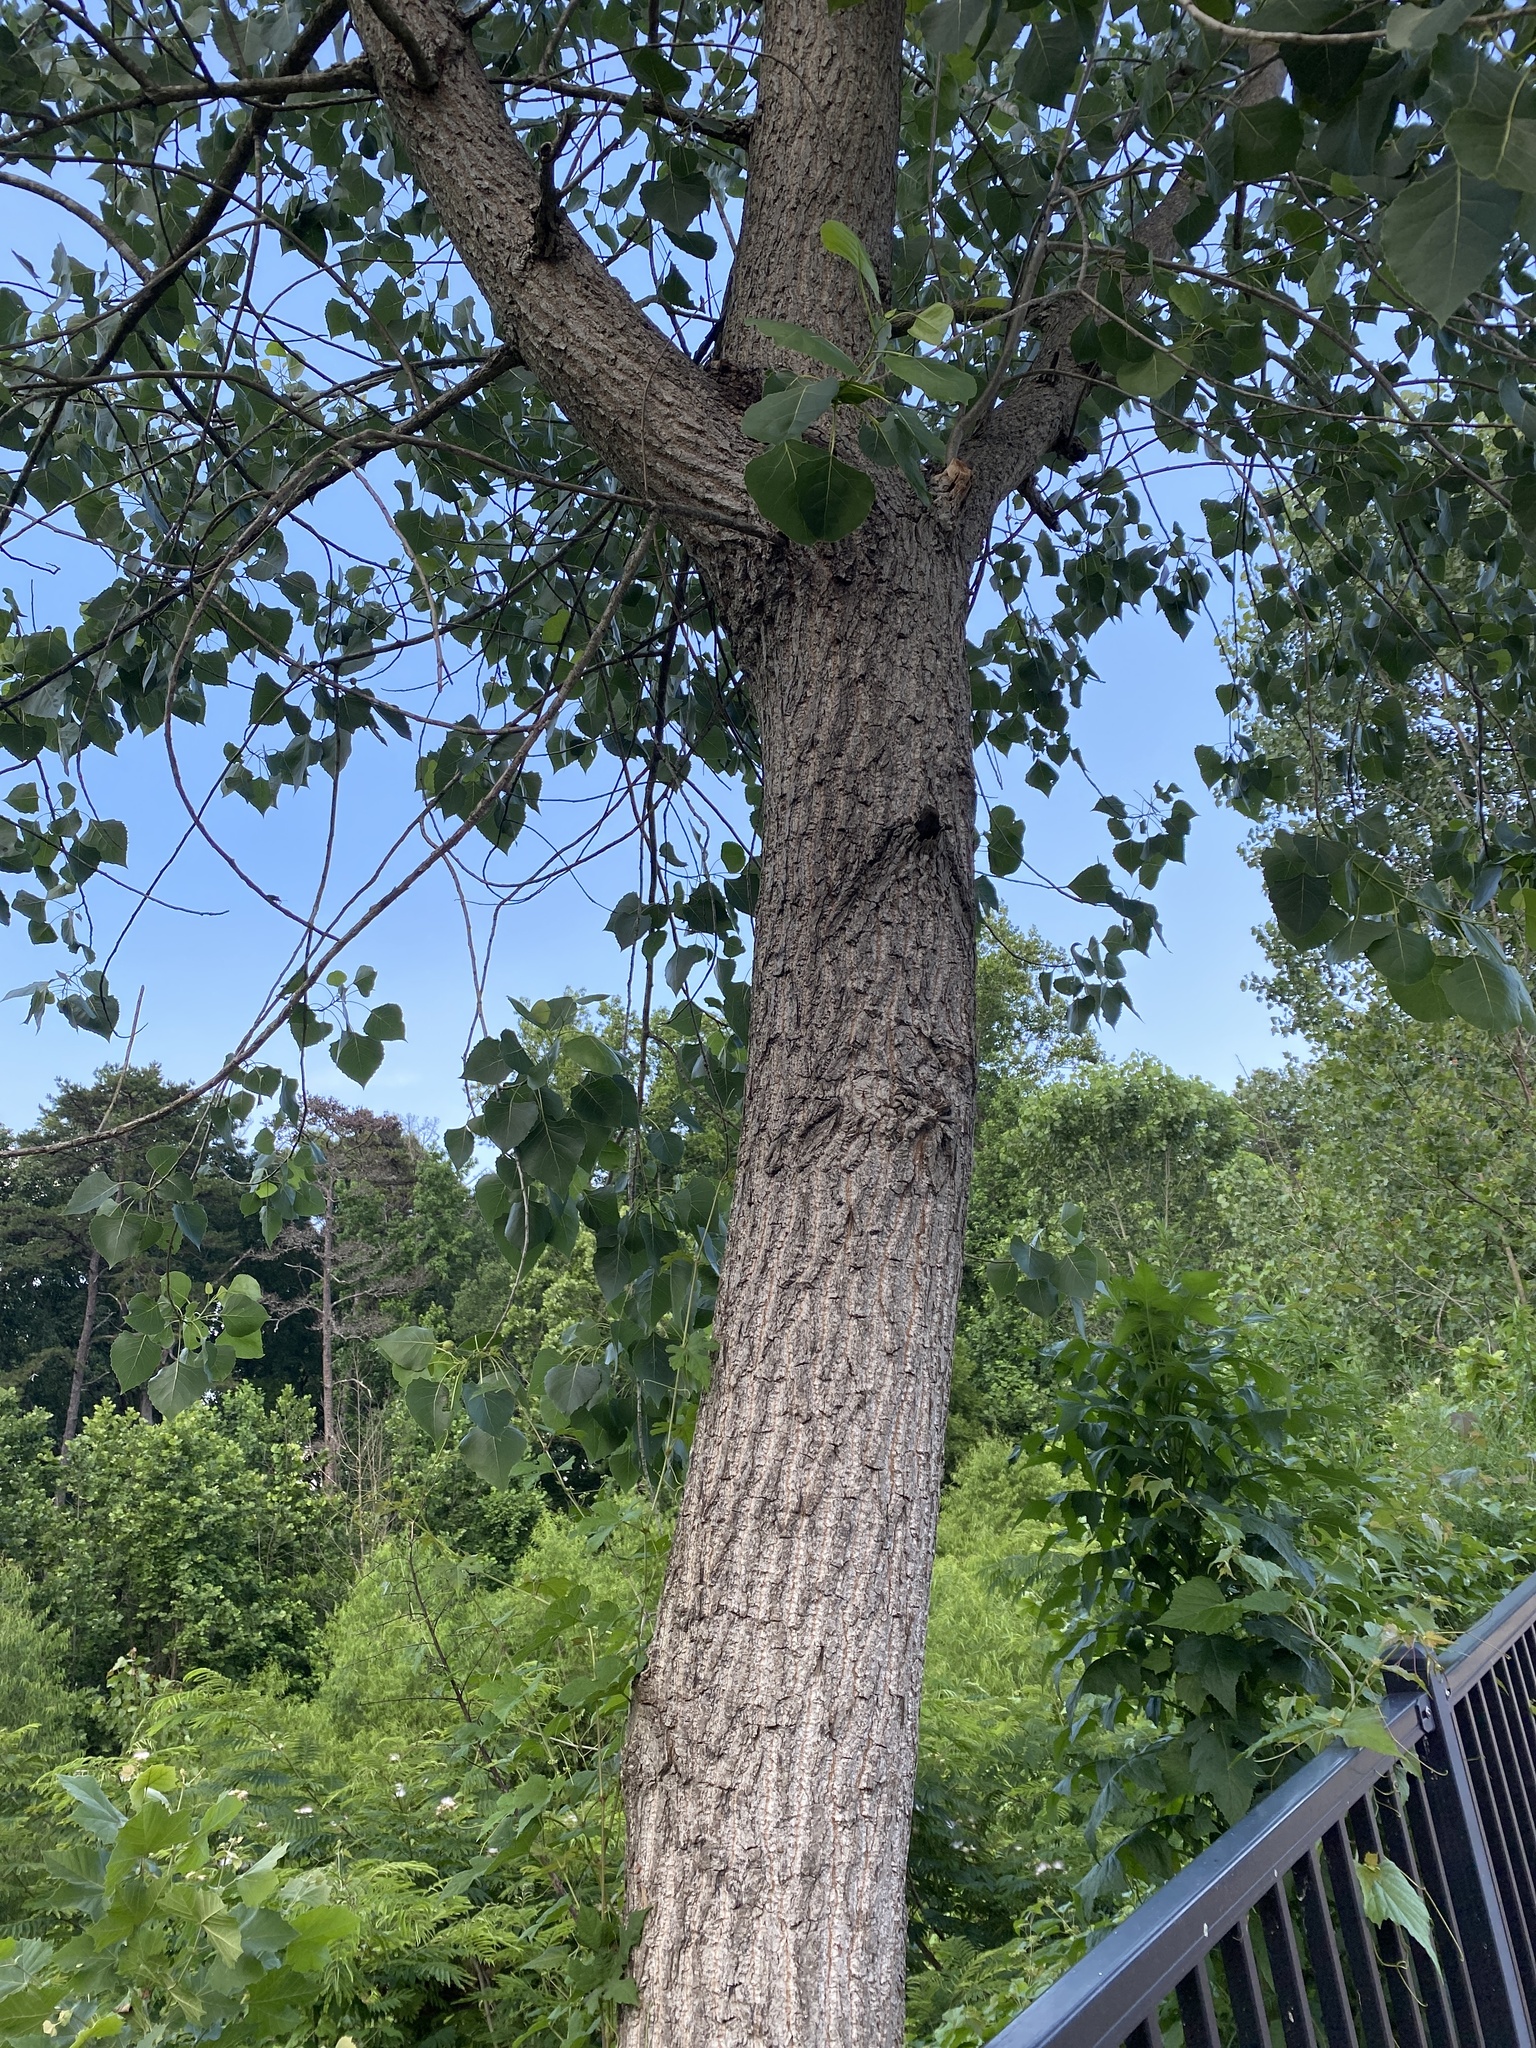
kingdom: Plantae
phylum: Tracheophyta
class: Magnoliopsida
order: Malpighiales
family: Salicaceae
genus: Populus
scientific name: Populus deltoides
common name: Eastern cottonwood
